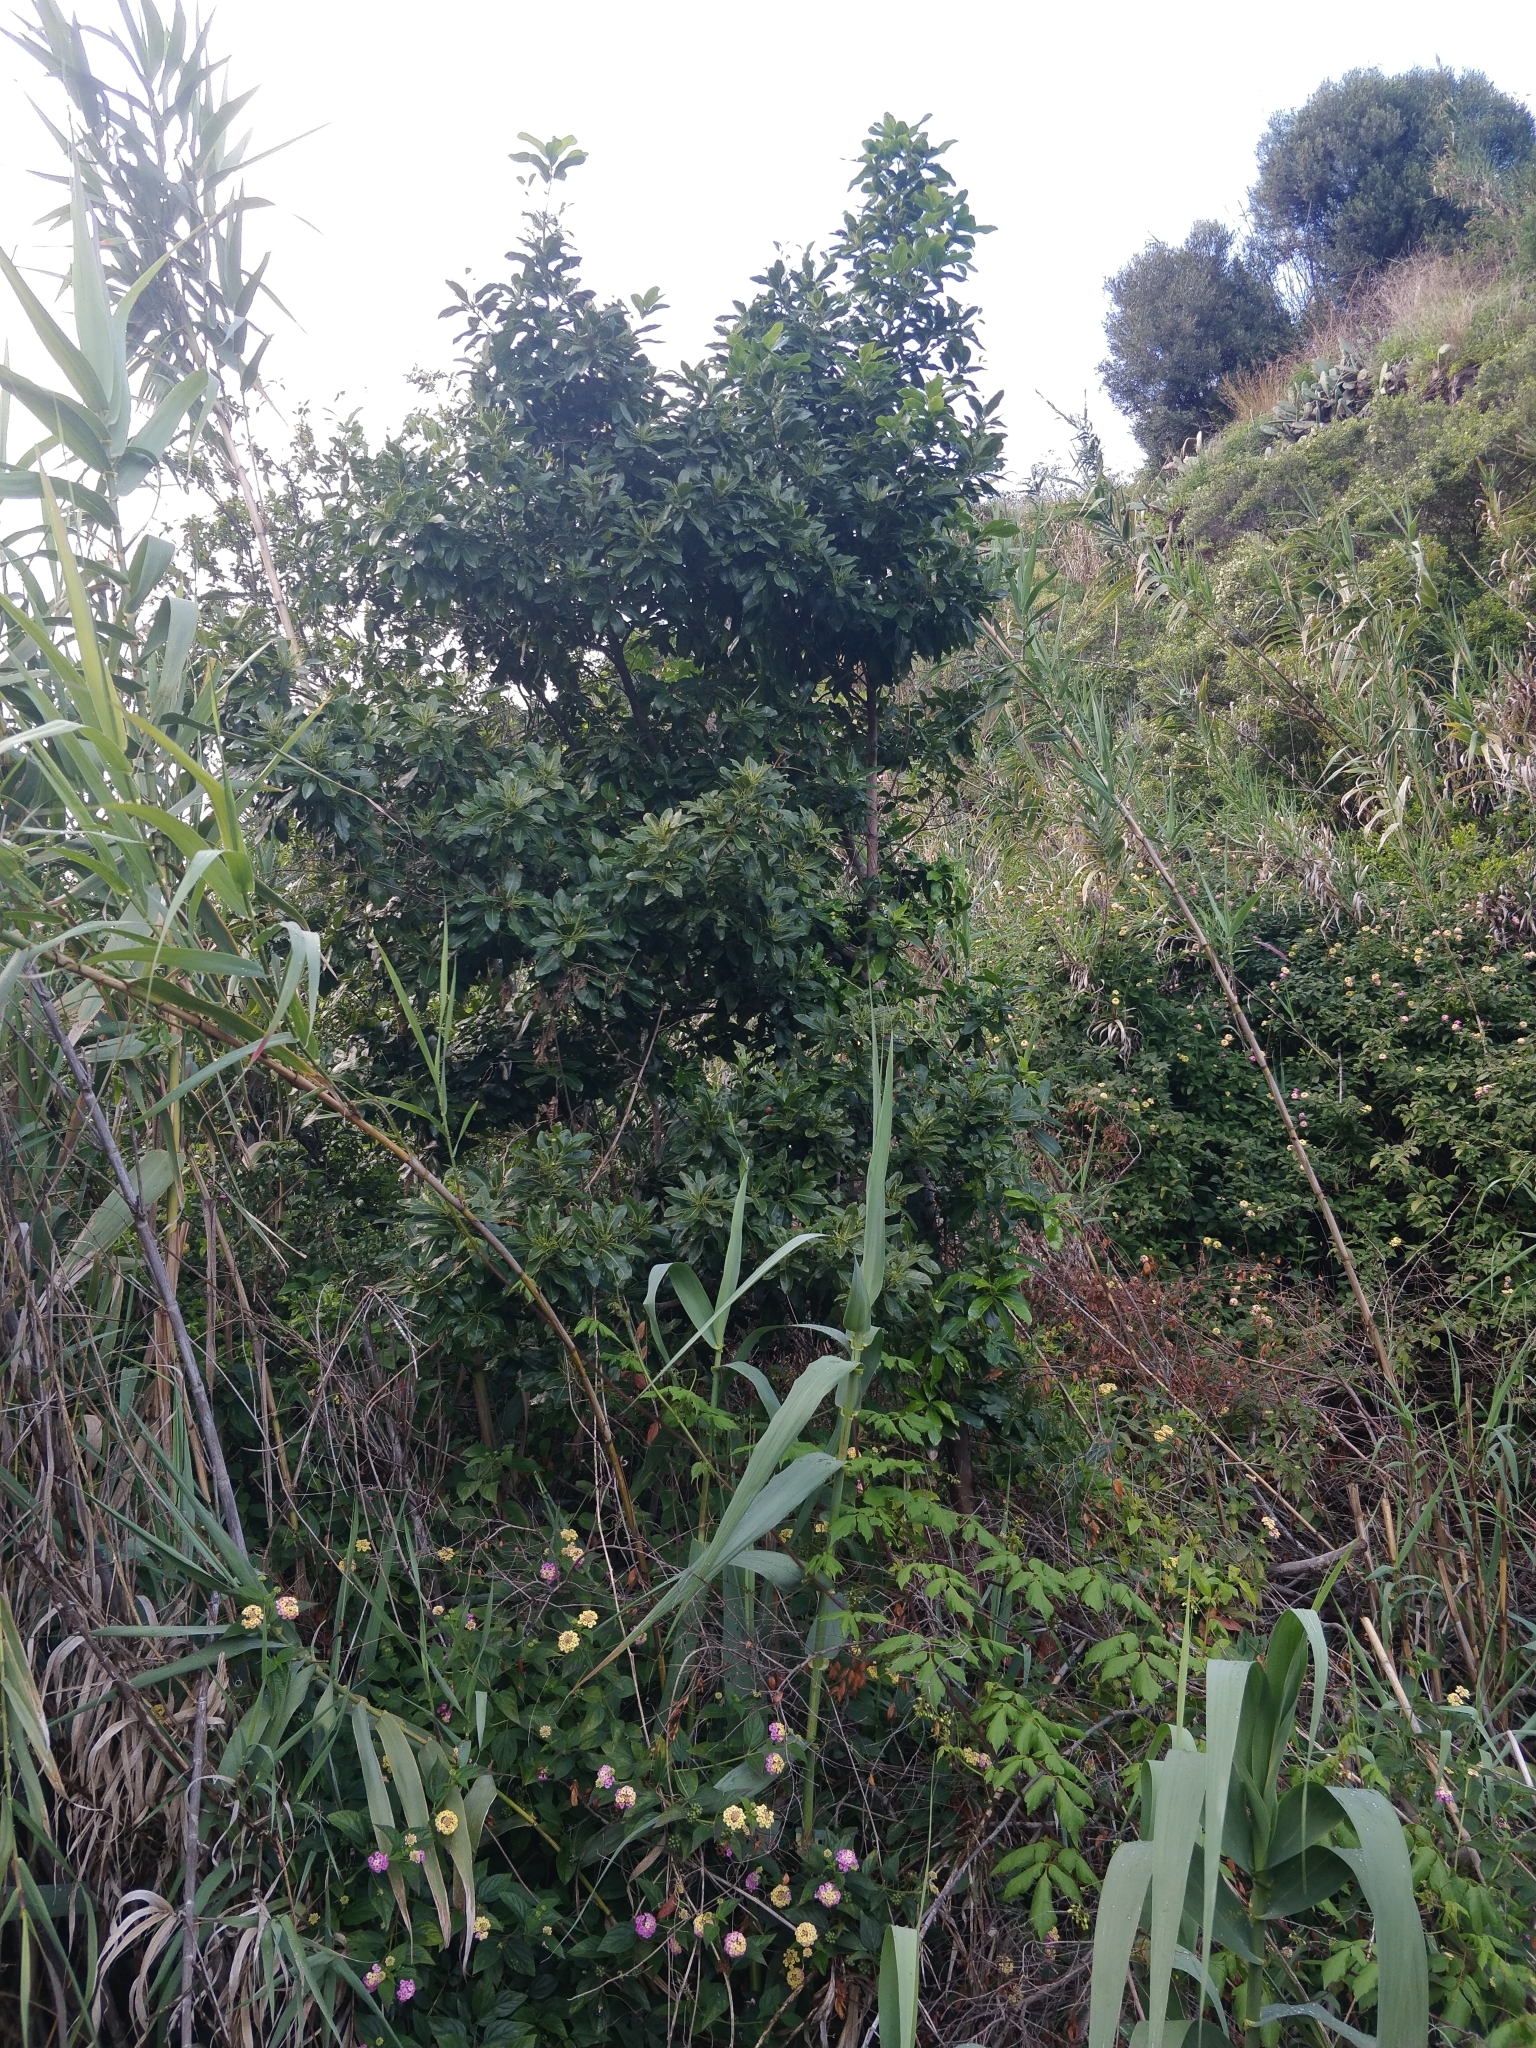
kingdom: Plantae
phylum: Tracheophyta
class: Magnoliopsida
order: Laurales
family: Lauraceae
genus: Apollonias
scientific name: Apollonias barbujana
